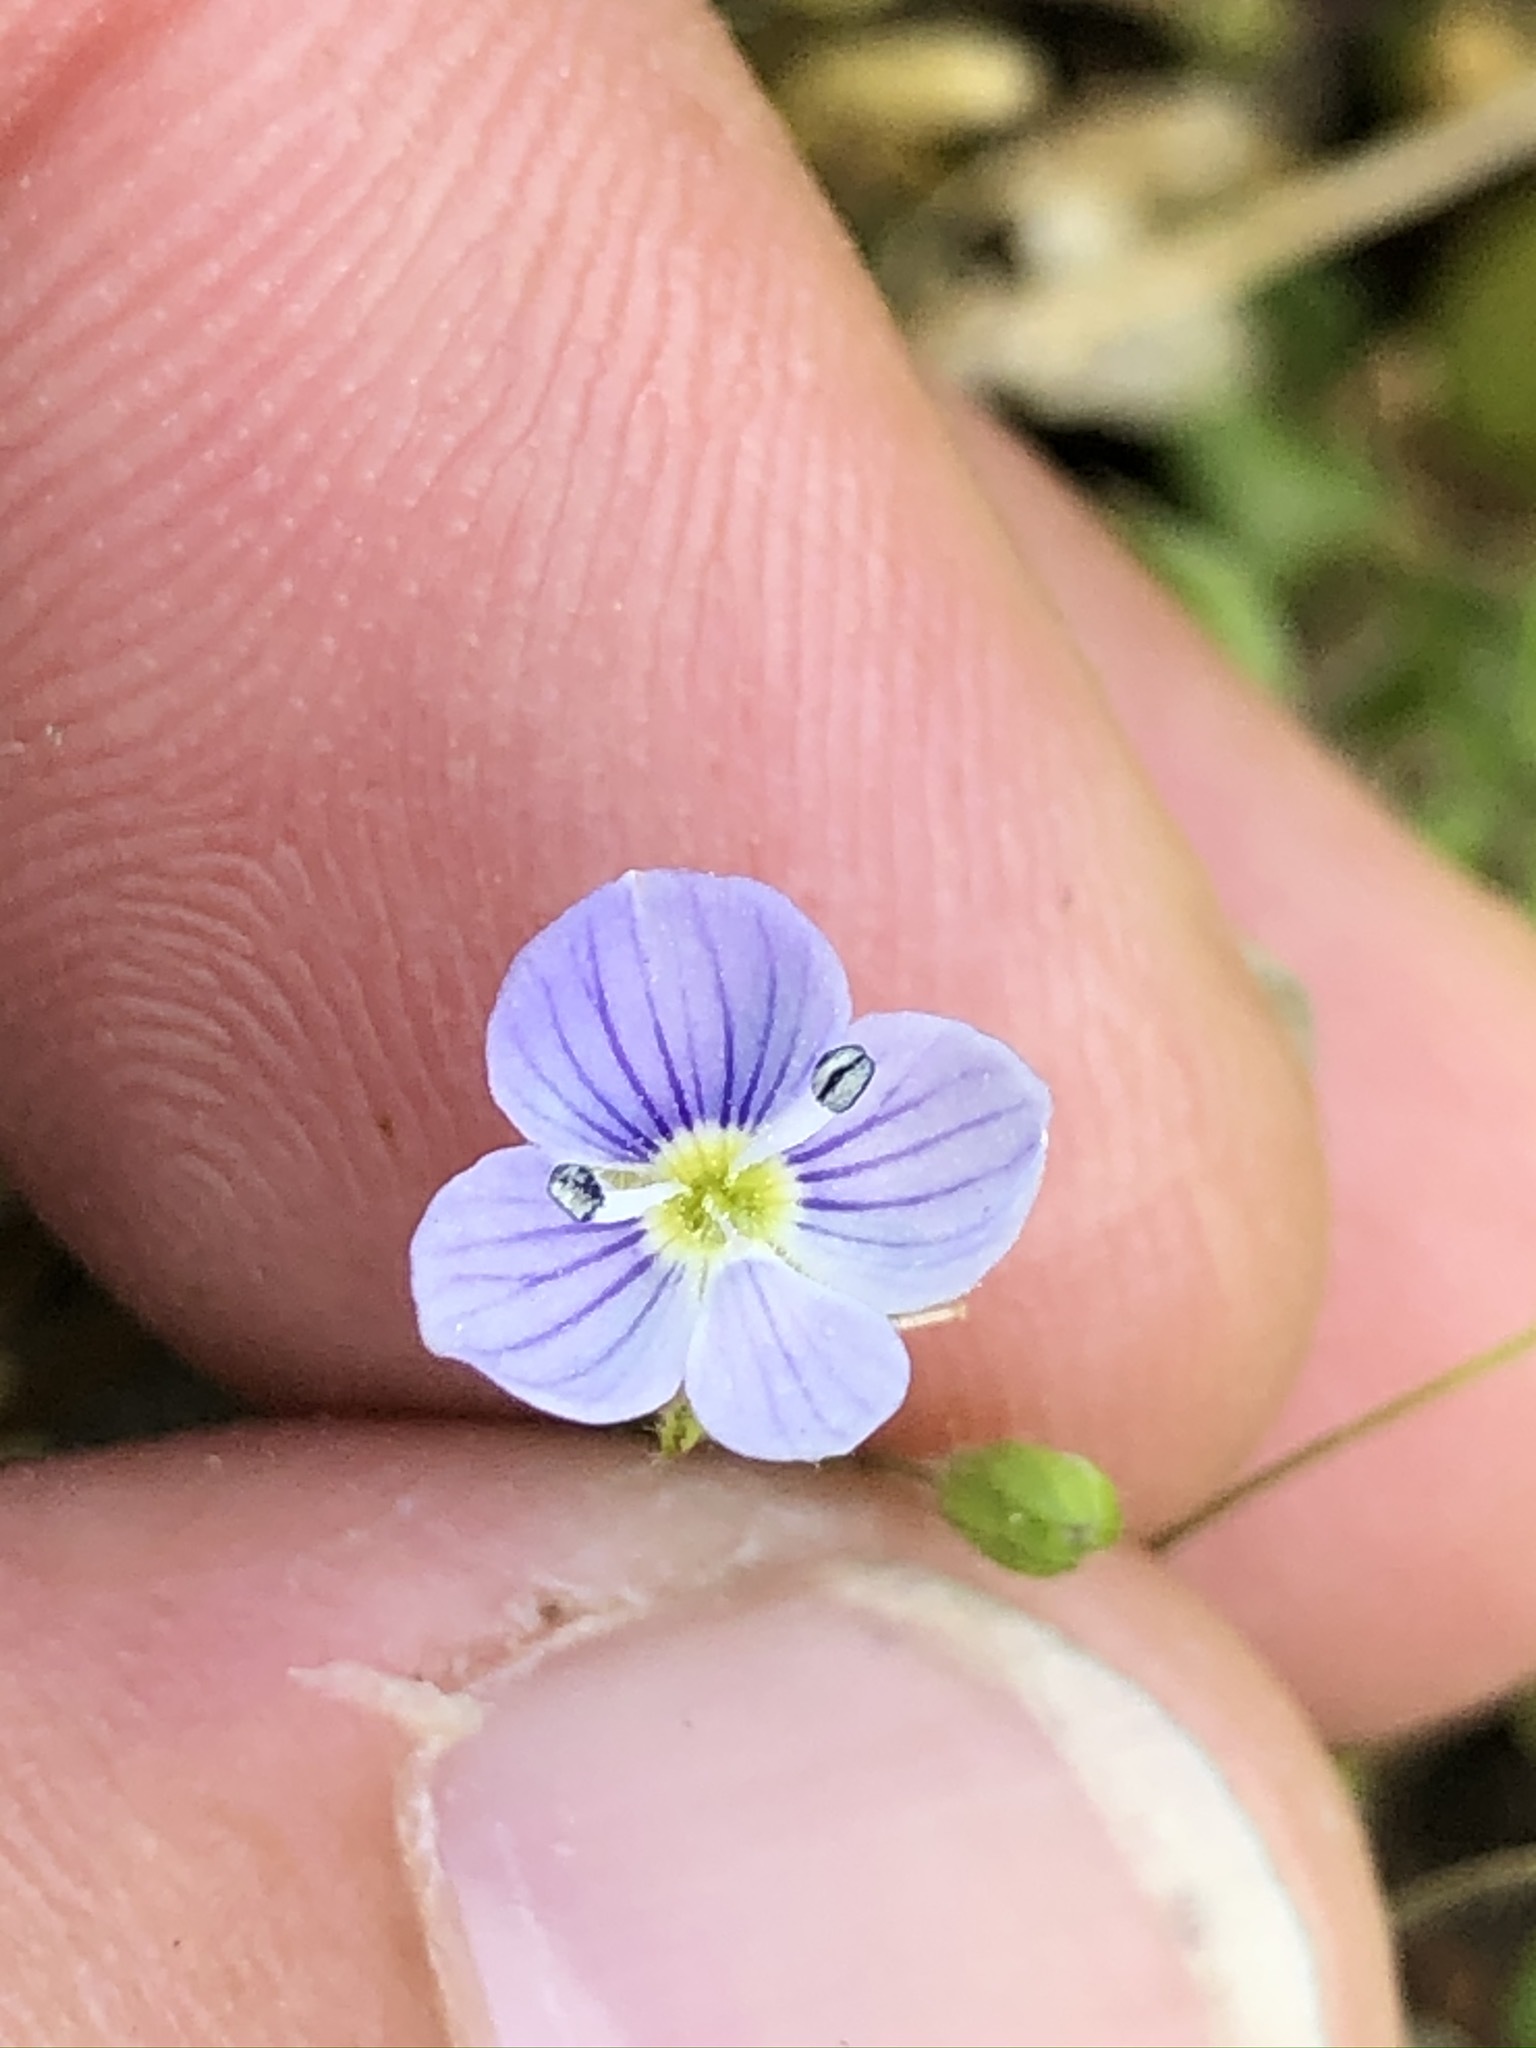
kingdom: Plantae
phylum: Tracheophyta
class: Magnoliopsida
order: Lamiales
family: Plantaginaceae
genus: Veronica
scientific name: Veronica filiformis
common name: Slender speedwell
